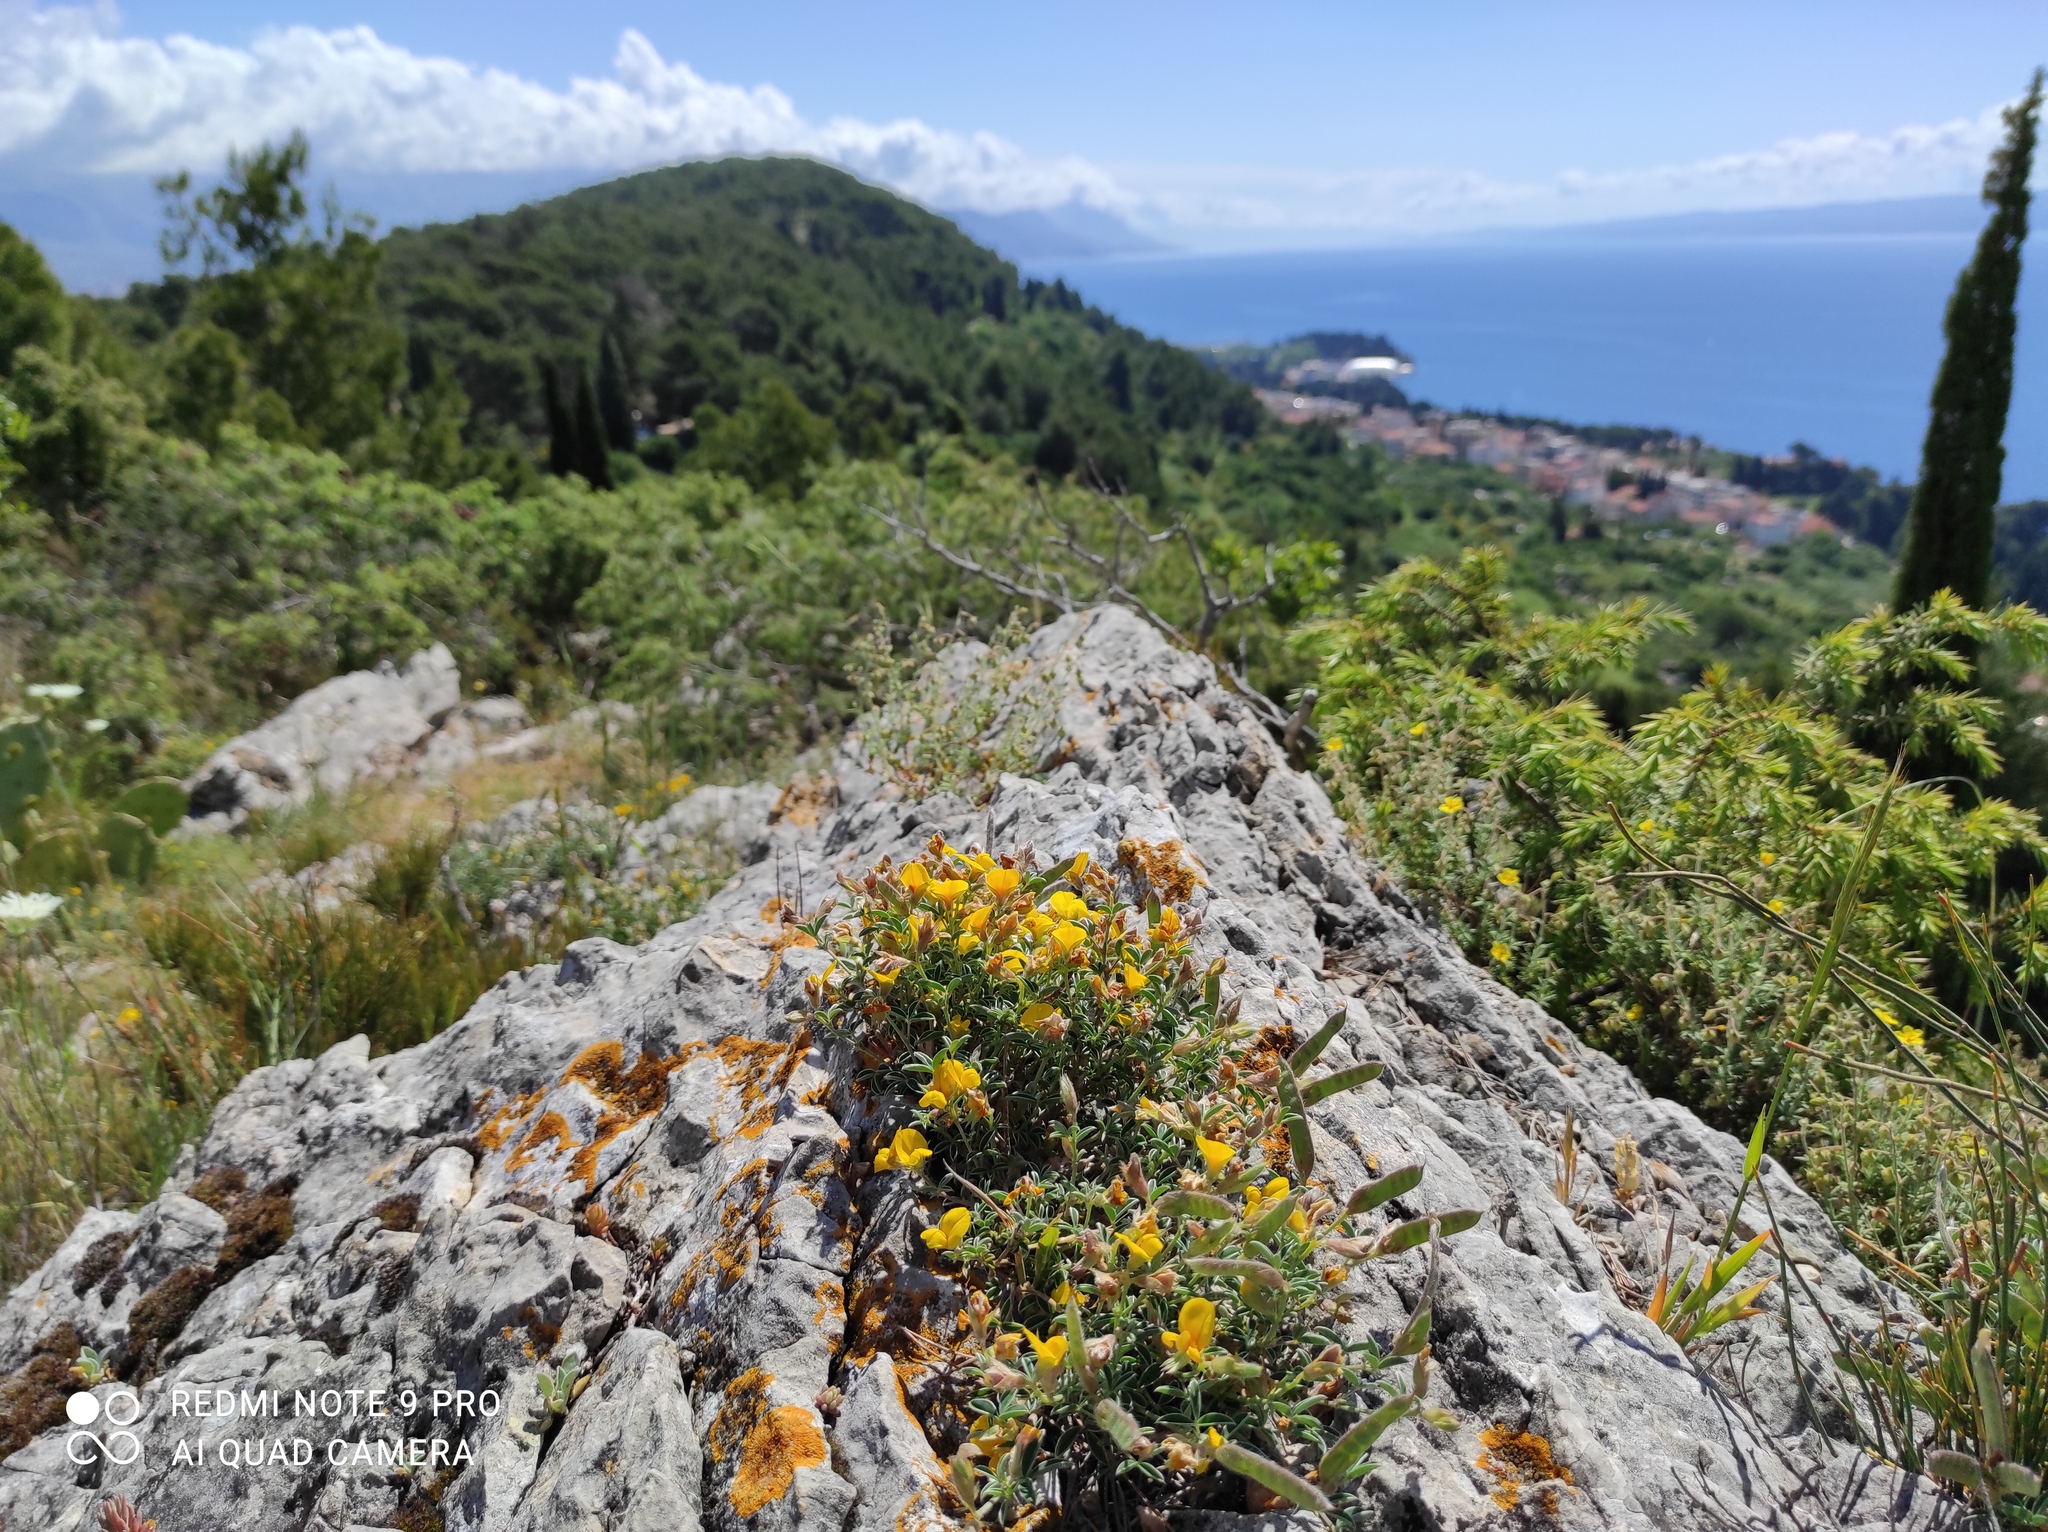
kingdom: Plantae
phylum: Tracheophyta
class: Magnoliopsida
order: Fabales
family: Fabaceae
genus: Argyrolobium
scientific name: Argyrolobium zanonii
